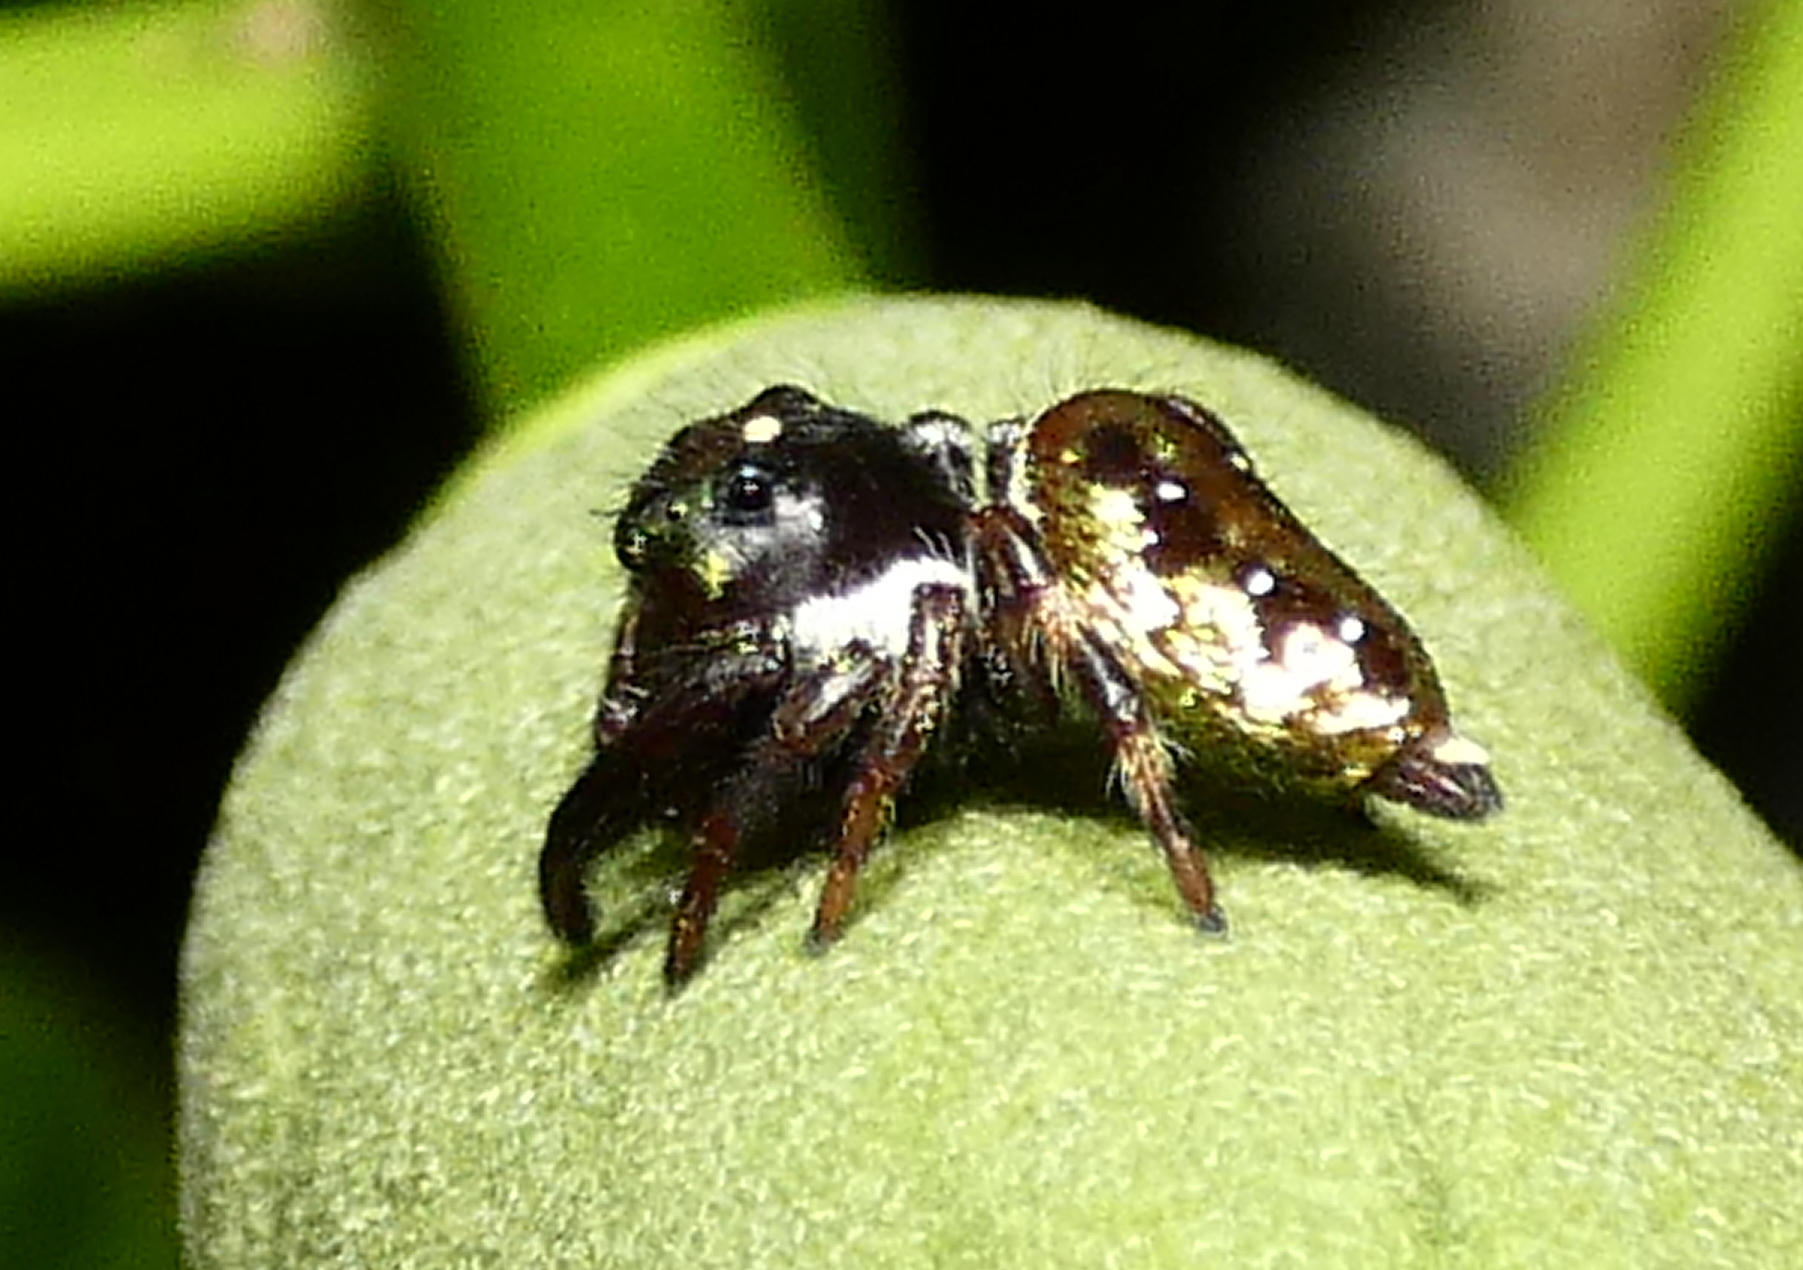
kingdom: Animalia
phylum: Arthropoda
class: Arachnida
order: Araneae
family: Salticidae
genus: Parnaenus
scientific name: Parnaenus cyanidens
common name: Jumping spiders
